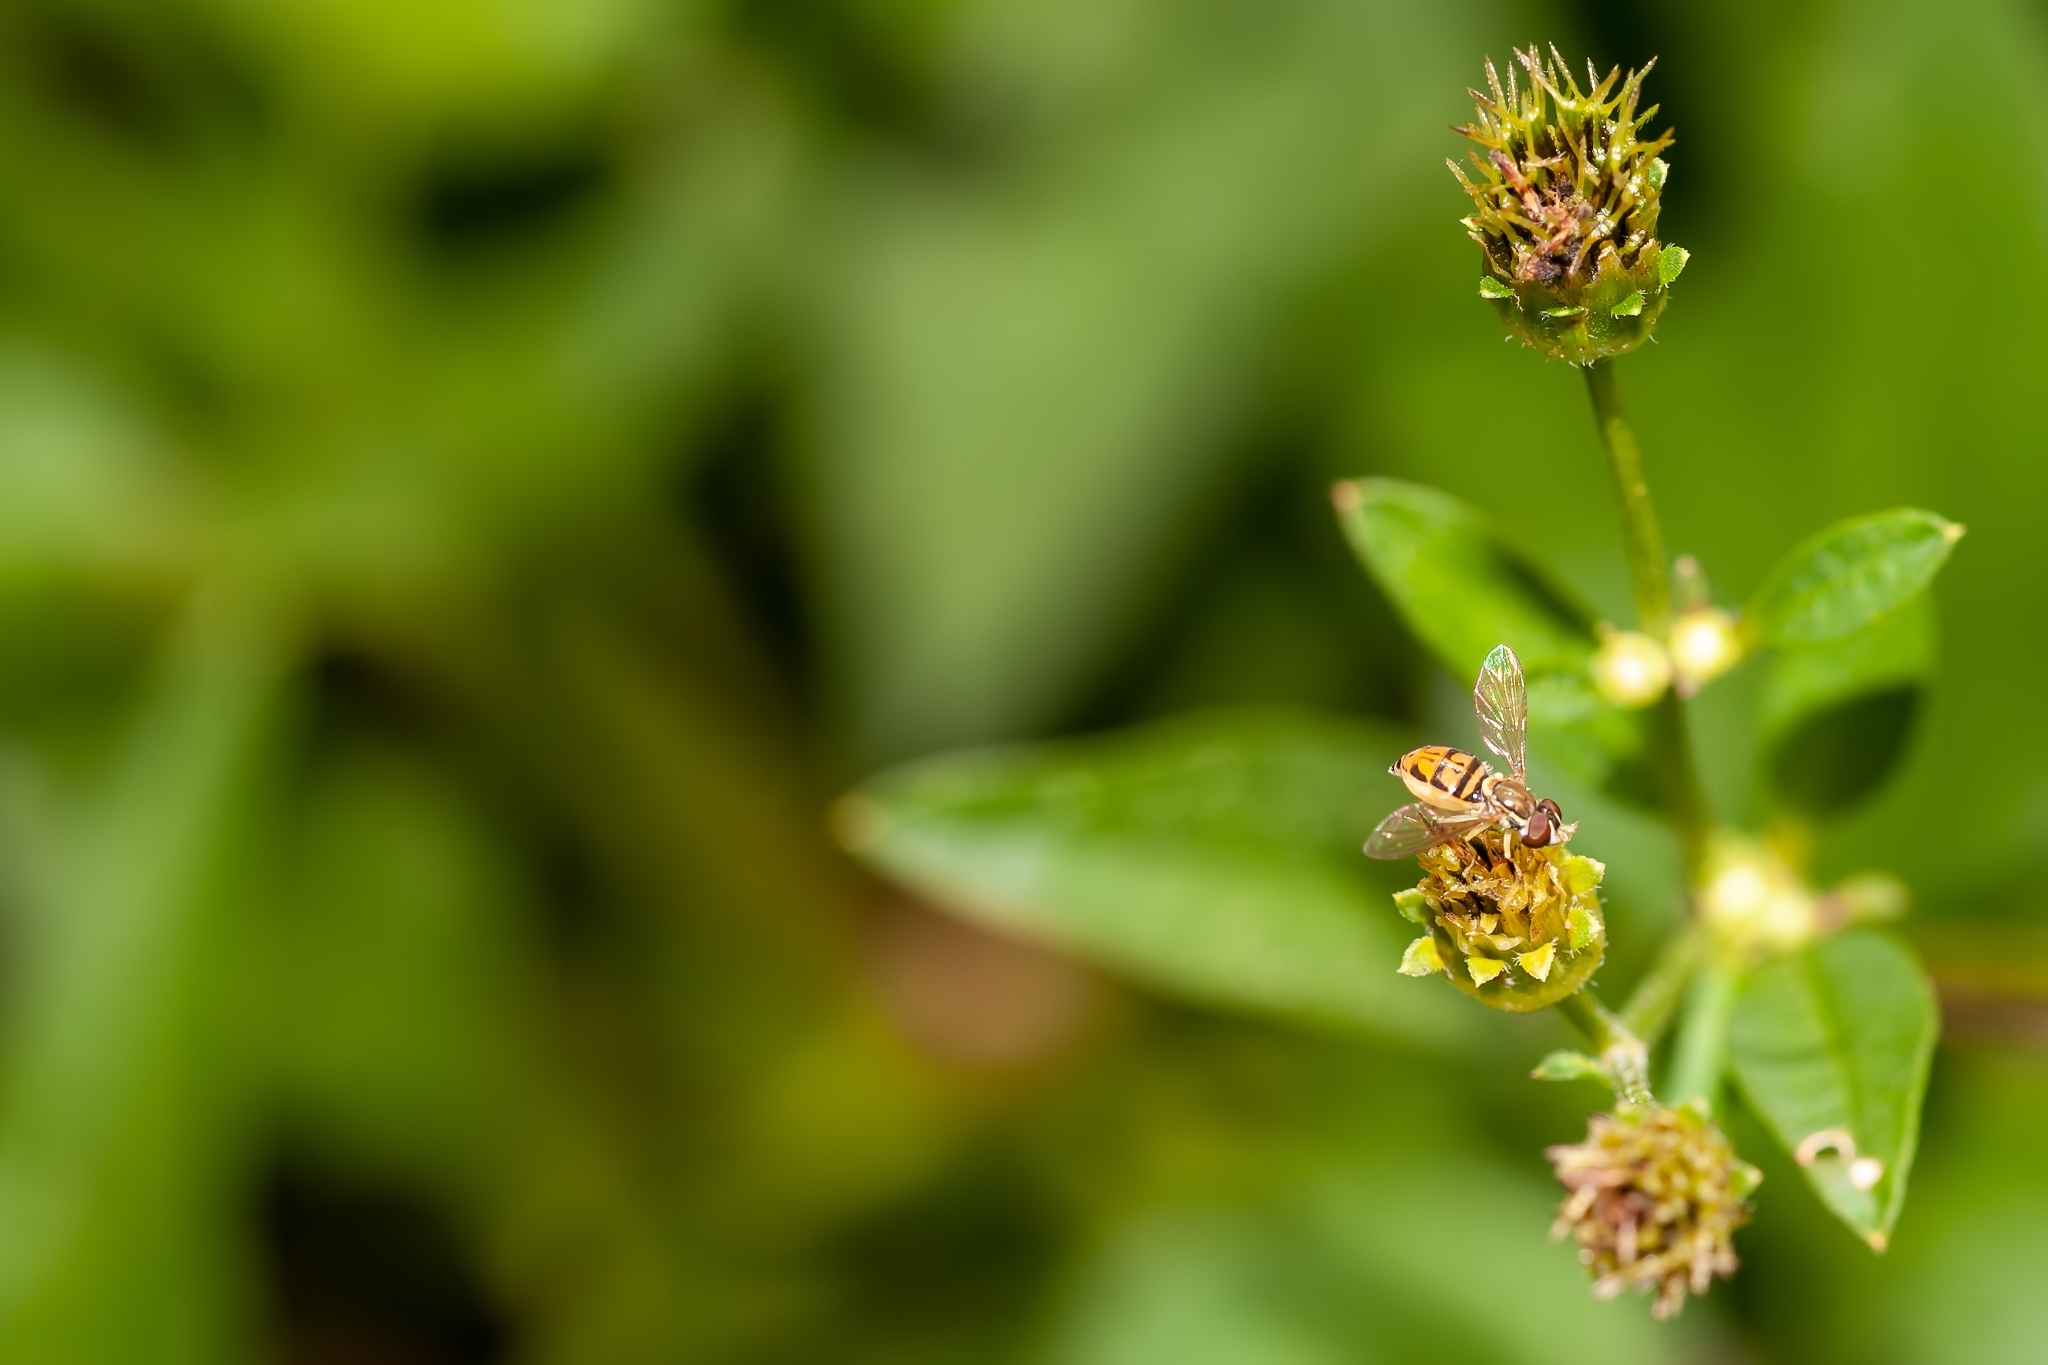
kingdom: Animalia
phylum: Arthropoda
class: Insecta
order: Diptera
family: Syrphidae
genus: Toxomerus
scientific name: Toxomerus marginatus
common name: Syrphid fly
